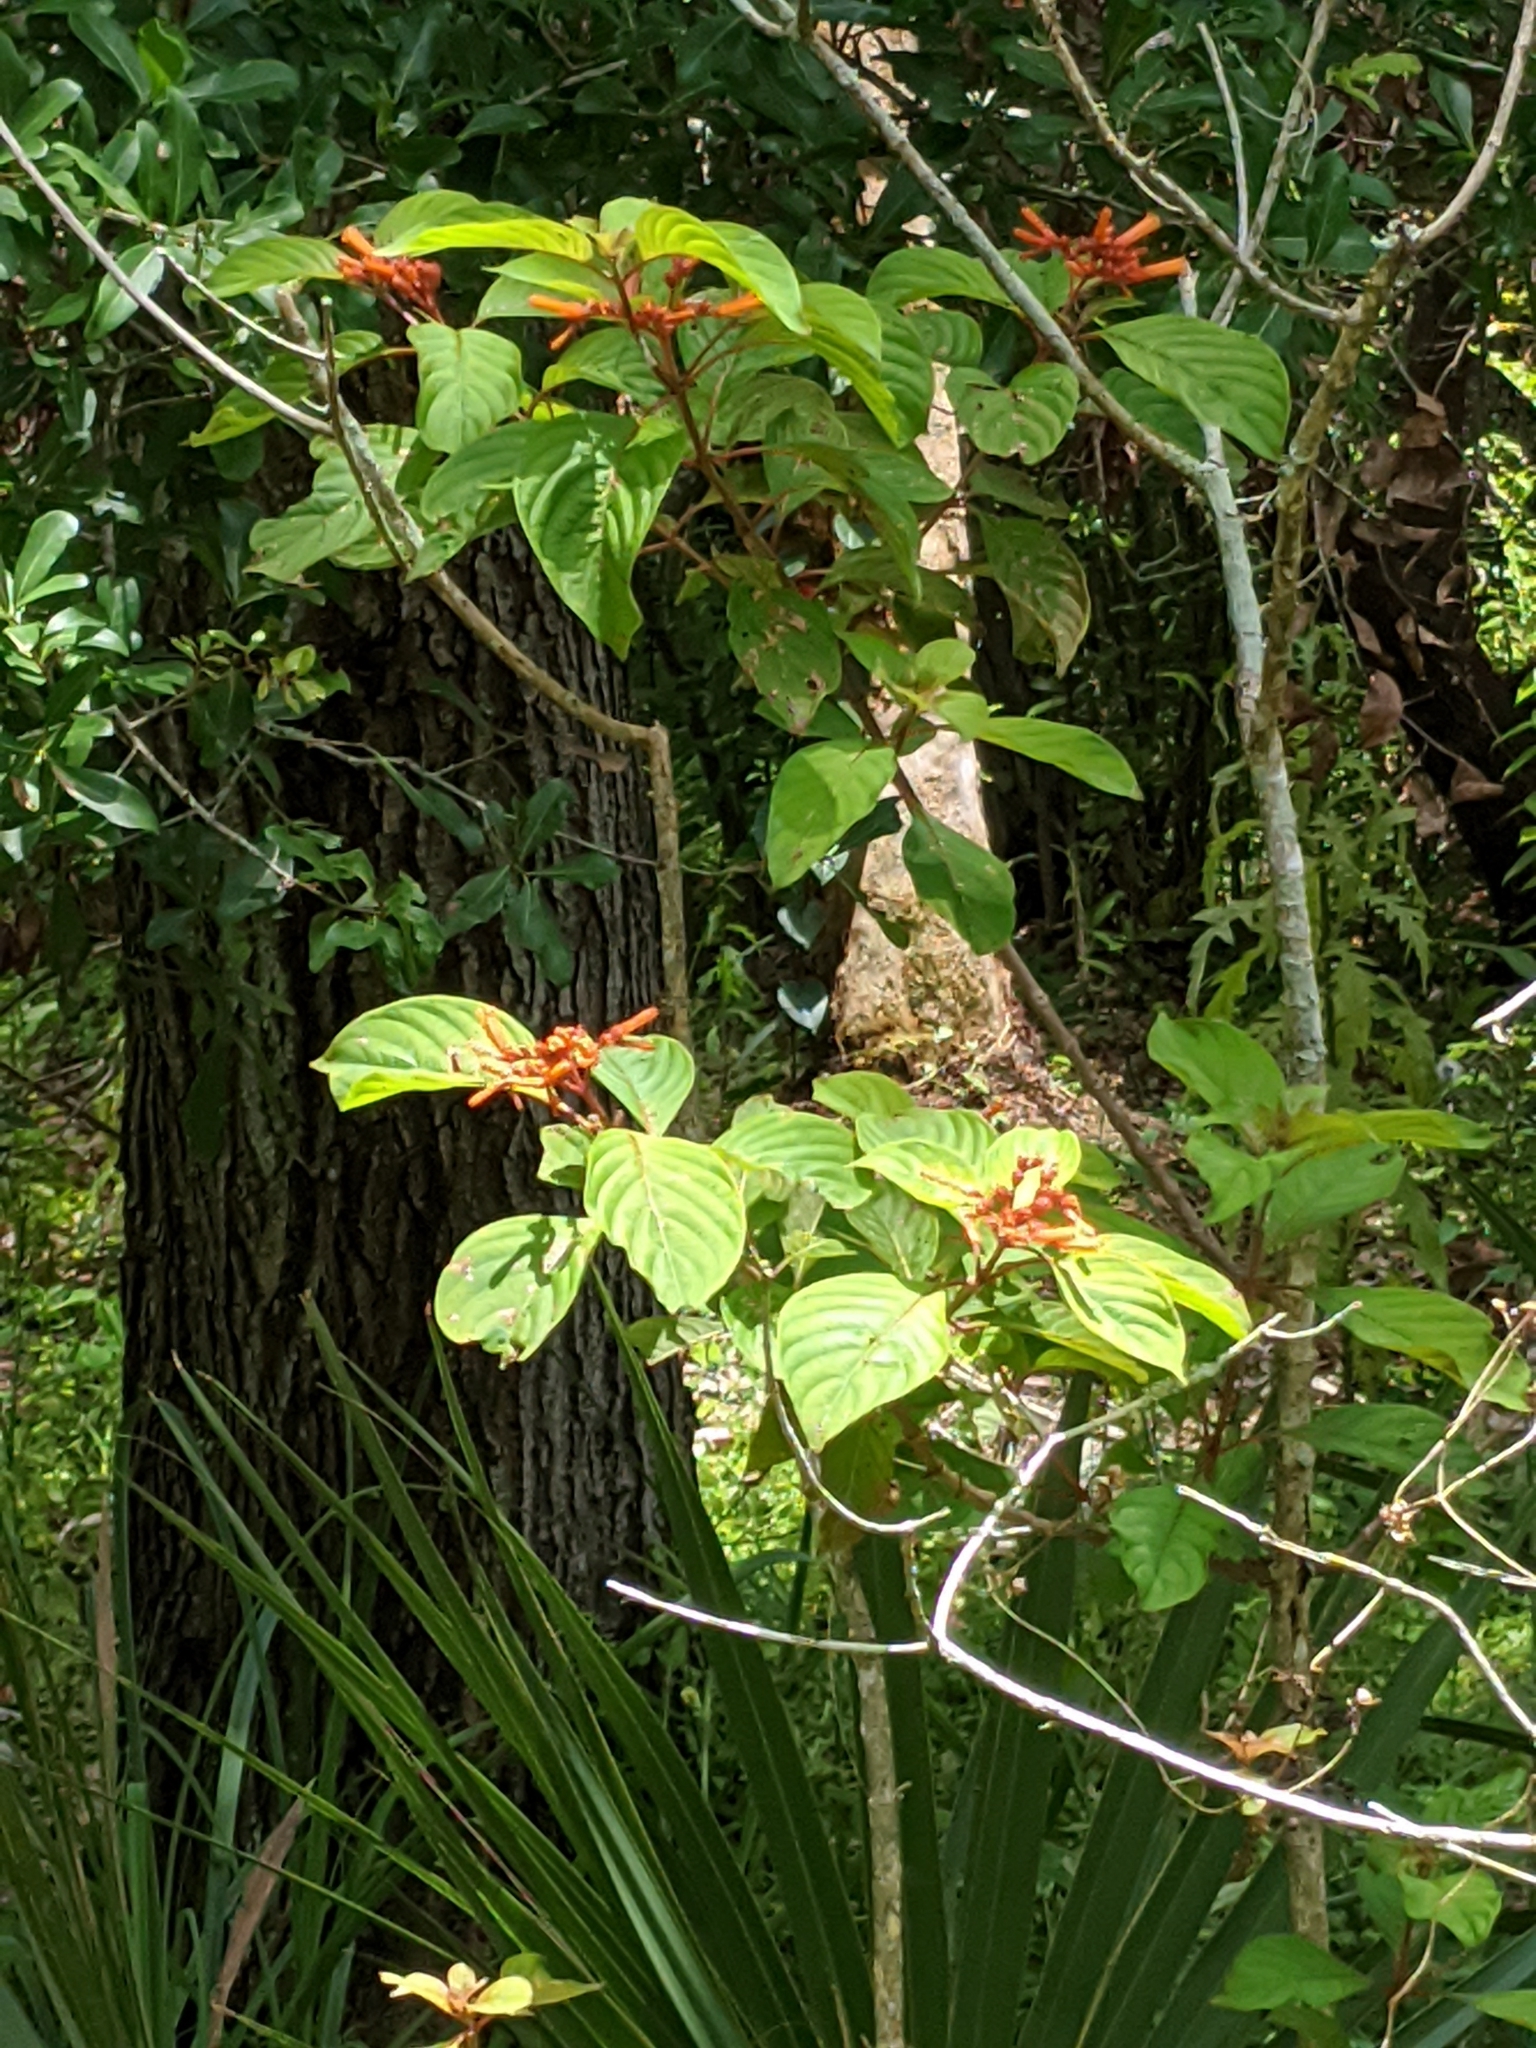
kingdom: Plantae
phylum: Tracheophyta
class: Magnoliopsida
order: Gentianales
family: Rubiaceae
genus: Hamelia
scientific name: Hamelia patens
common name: Redhead
